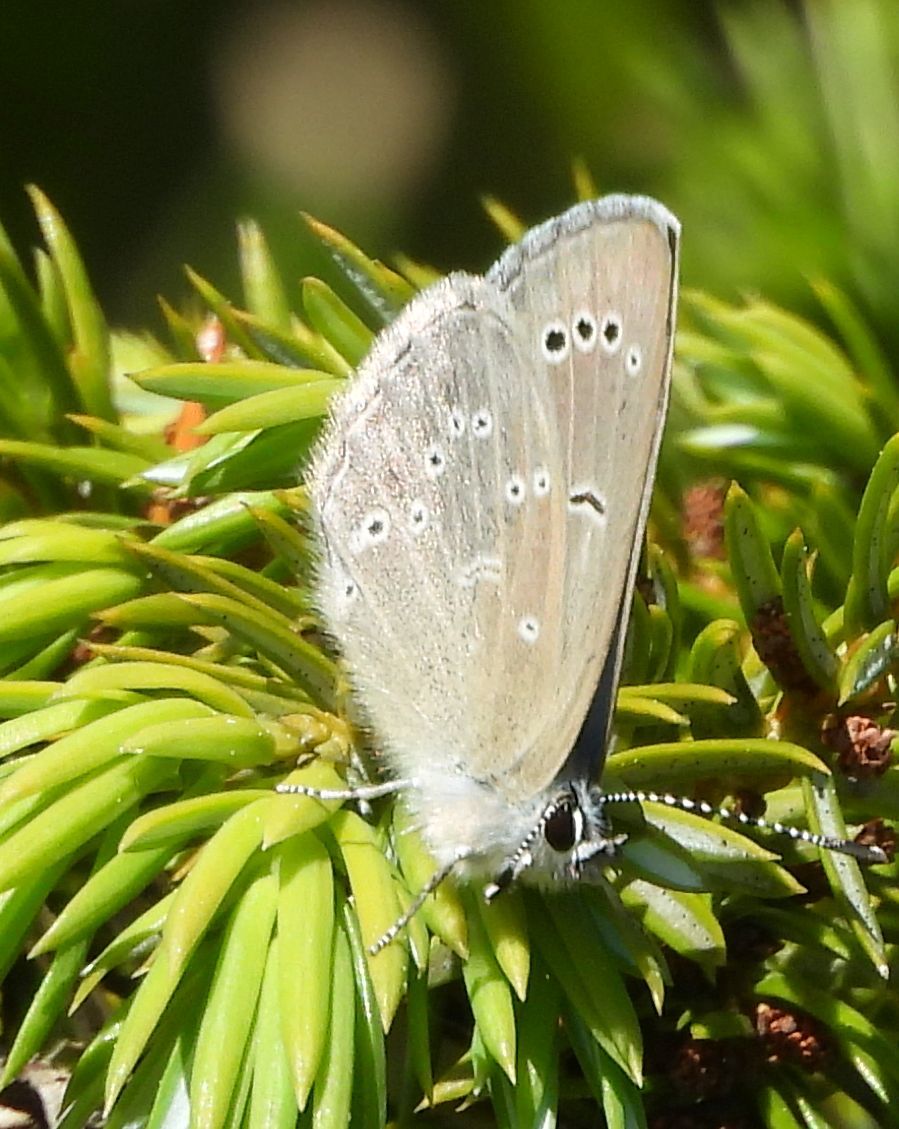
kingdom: Animalia
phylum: Arthropoda
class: Insecta
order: Lepidoptera
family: Lycaenidae
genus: Glaucopsyche
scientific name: Glaucopsyche lygdamus
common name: Silvery blue
